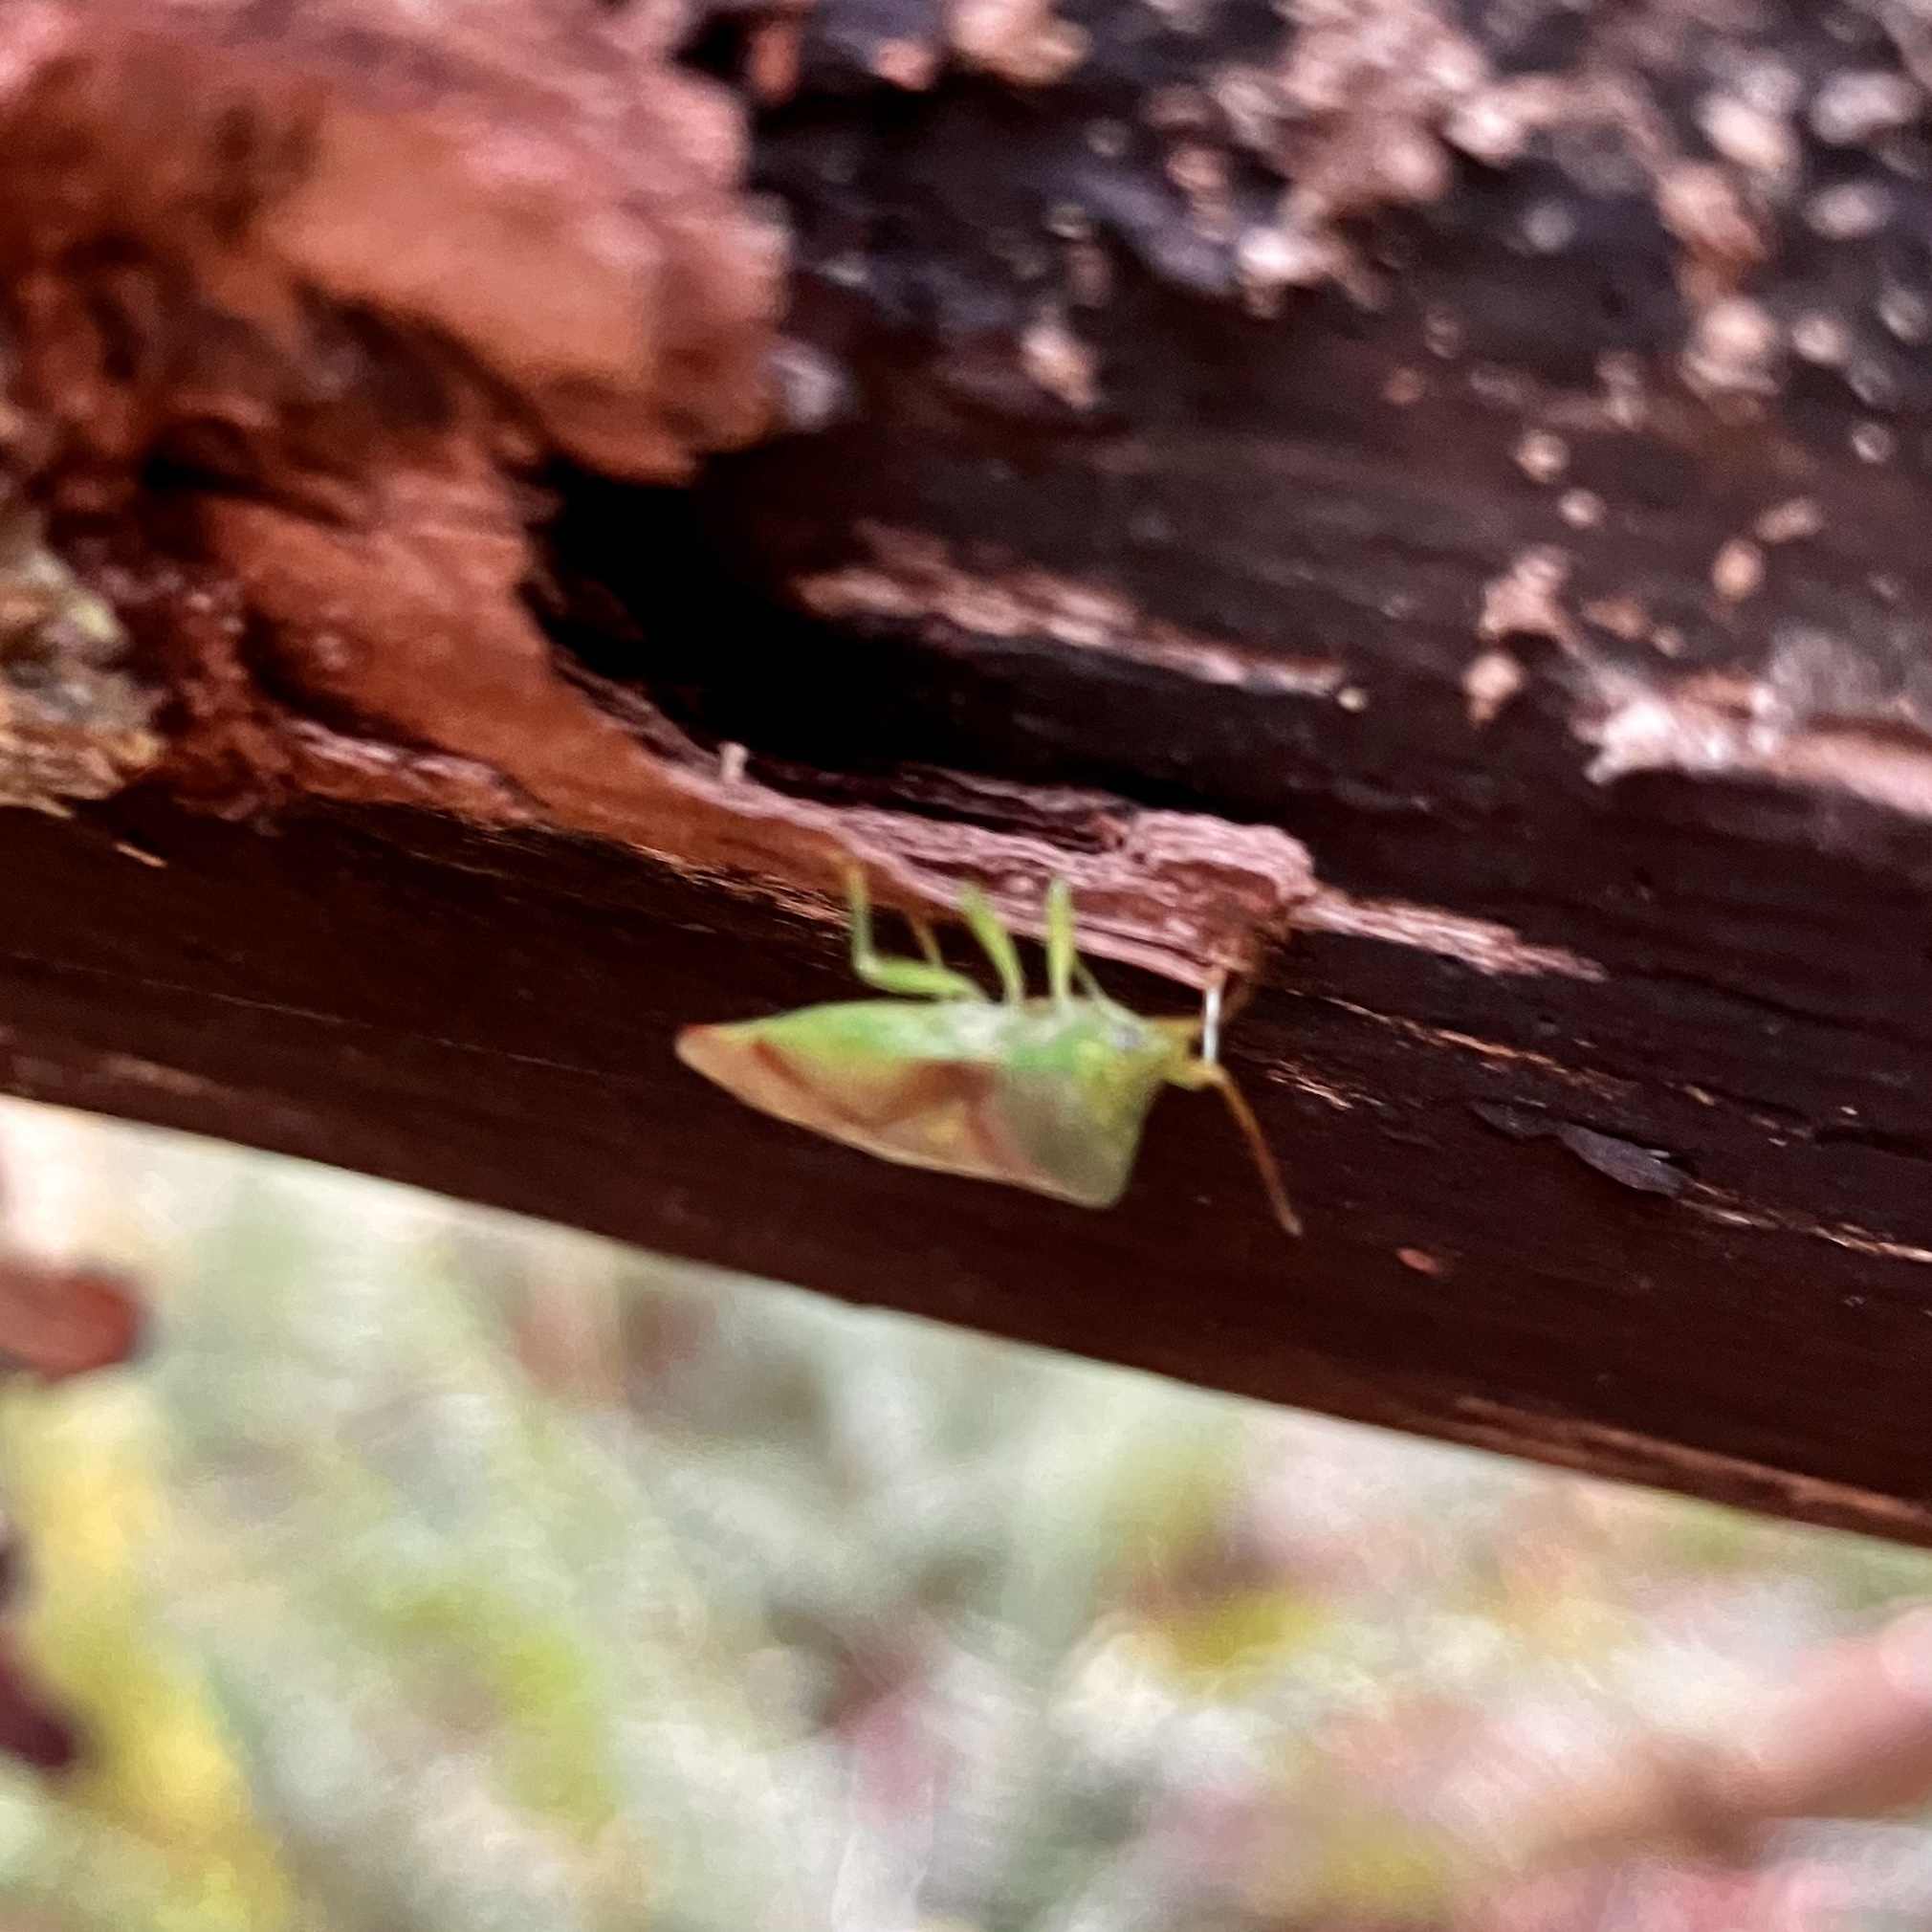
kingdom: Animalia
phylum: Arthropoda
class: Insecta
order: Hemiptera
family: Acanthosomatidae
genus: Elasmostethus
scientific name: Elasmostethus cruciatus
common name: Red-cross shield bug
